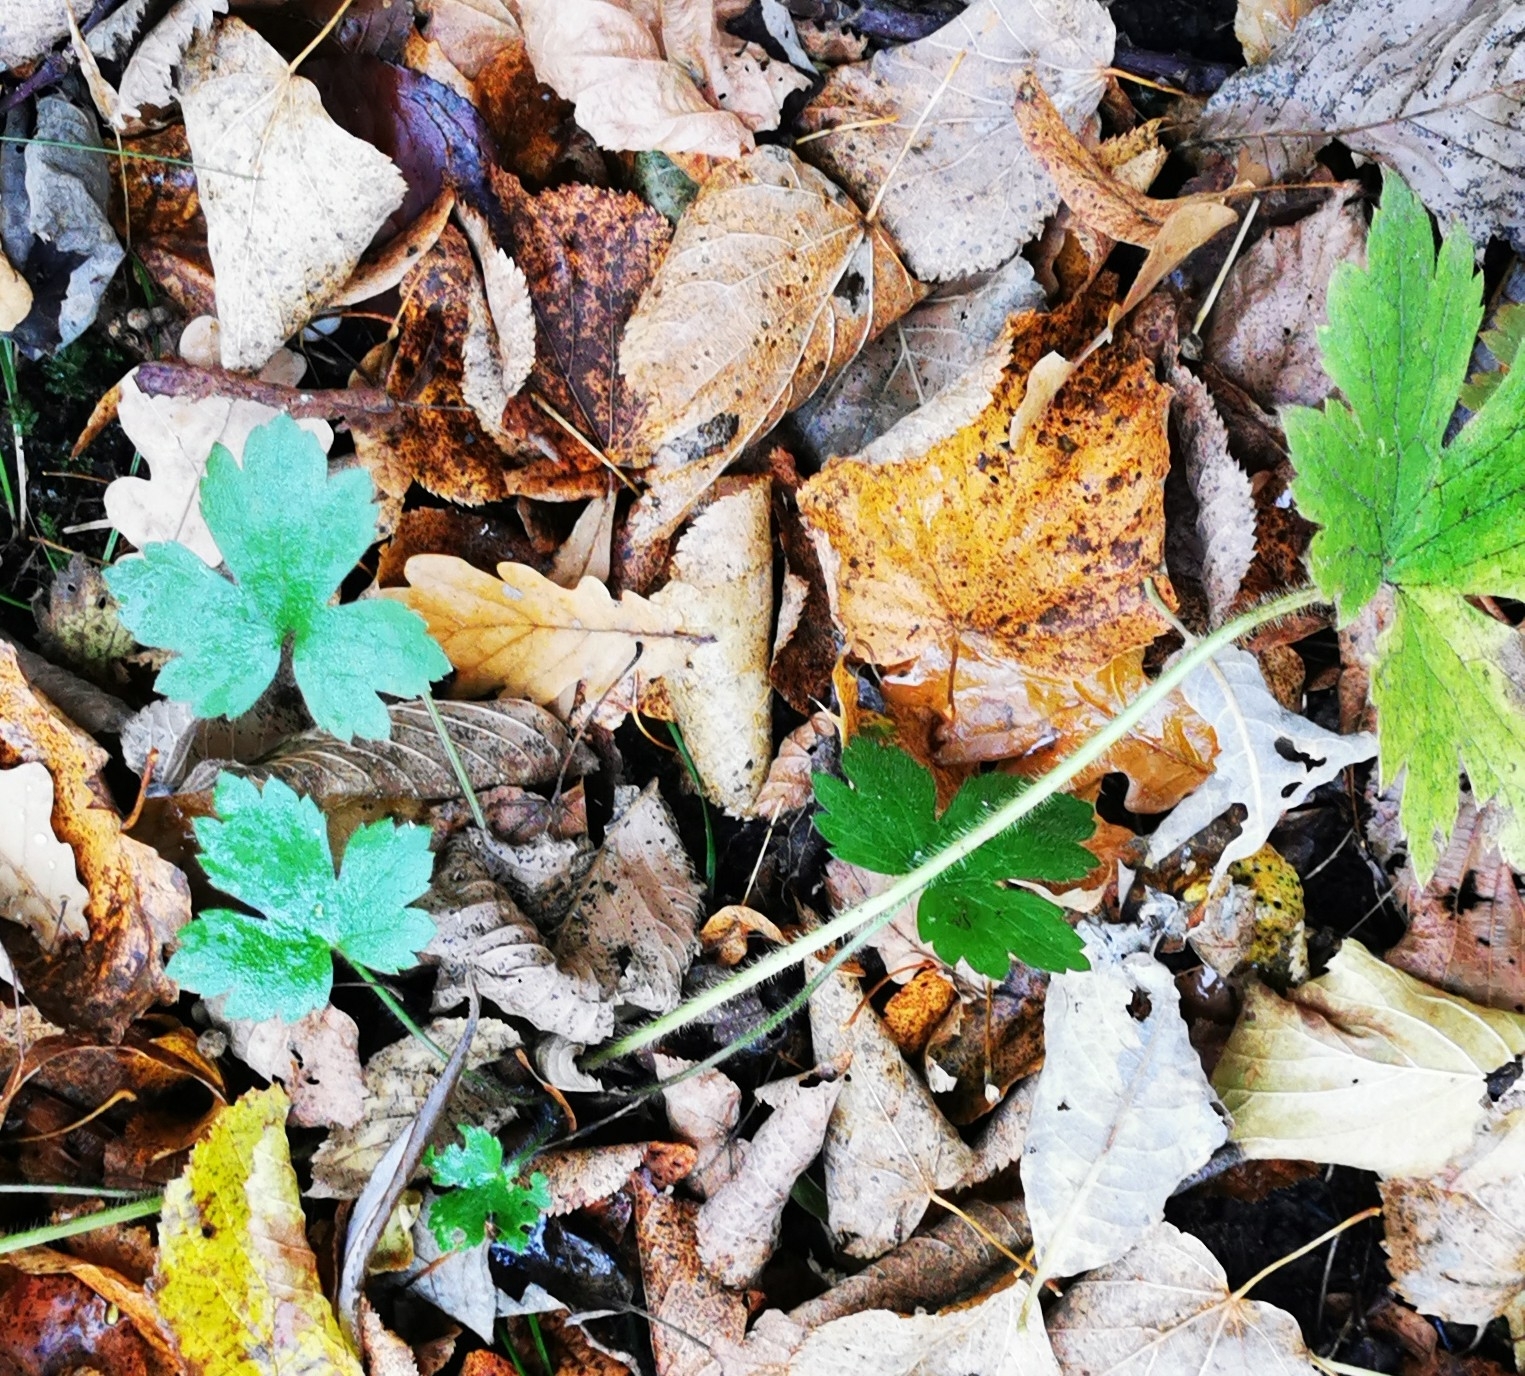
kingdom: Plantae
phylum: Tracheophyta
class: Magnoliopsida
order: Ranunculales
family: Ranunculaceae
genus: Ranunculus
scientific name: Ranunculus lanuginosus
